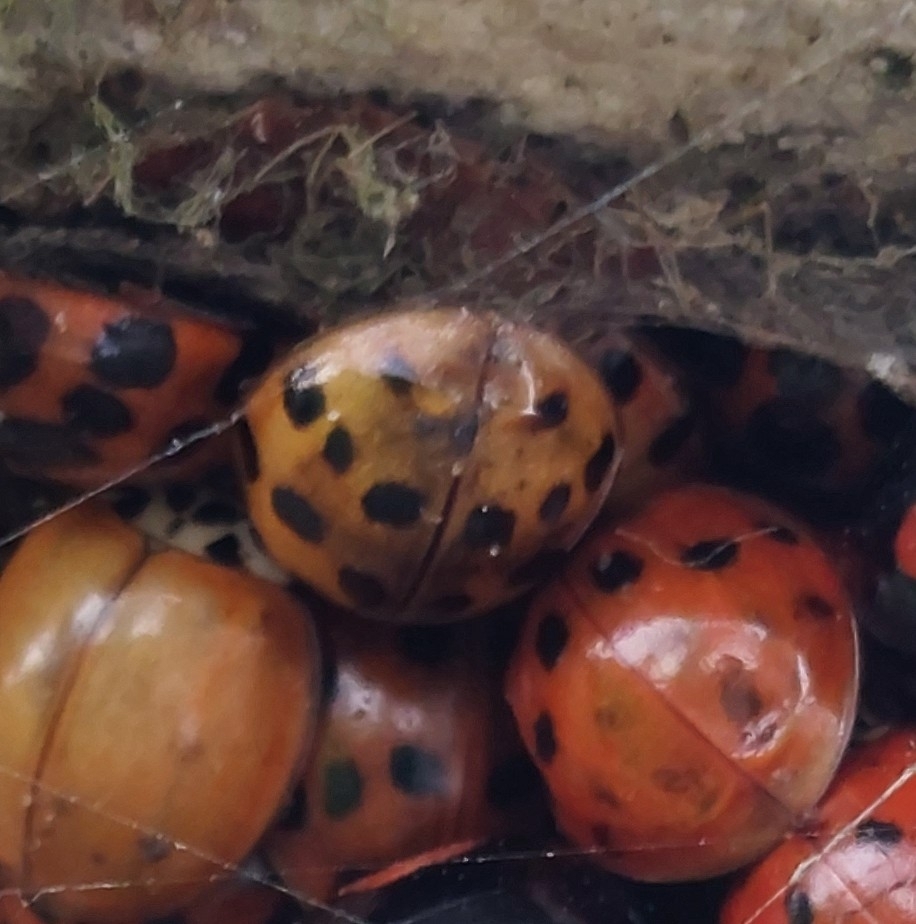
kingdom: Animalia
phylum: Arthropoda
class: Insecta
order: Coleoptera
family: Coccinellidae
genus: Harmonia
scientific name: Harmonia axyridis
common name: Harlequin ladybird
